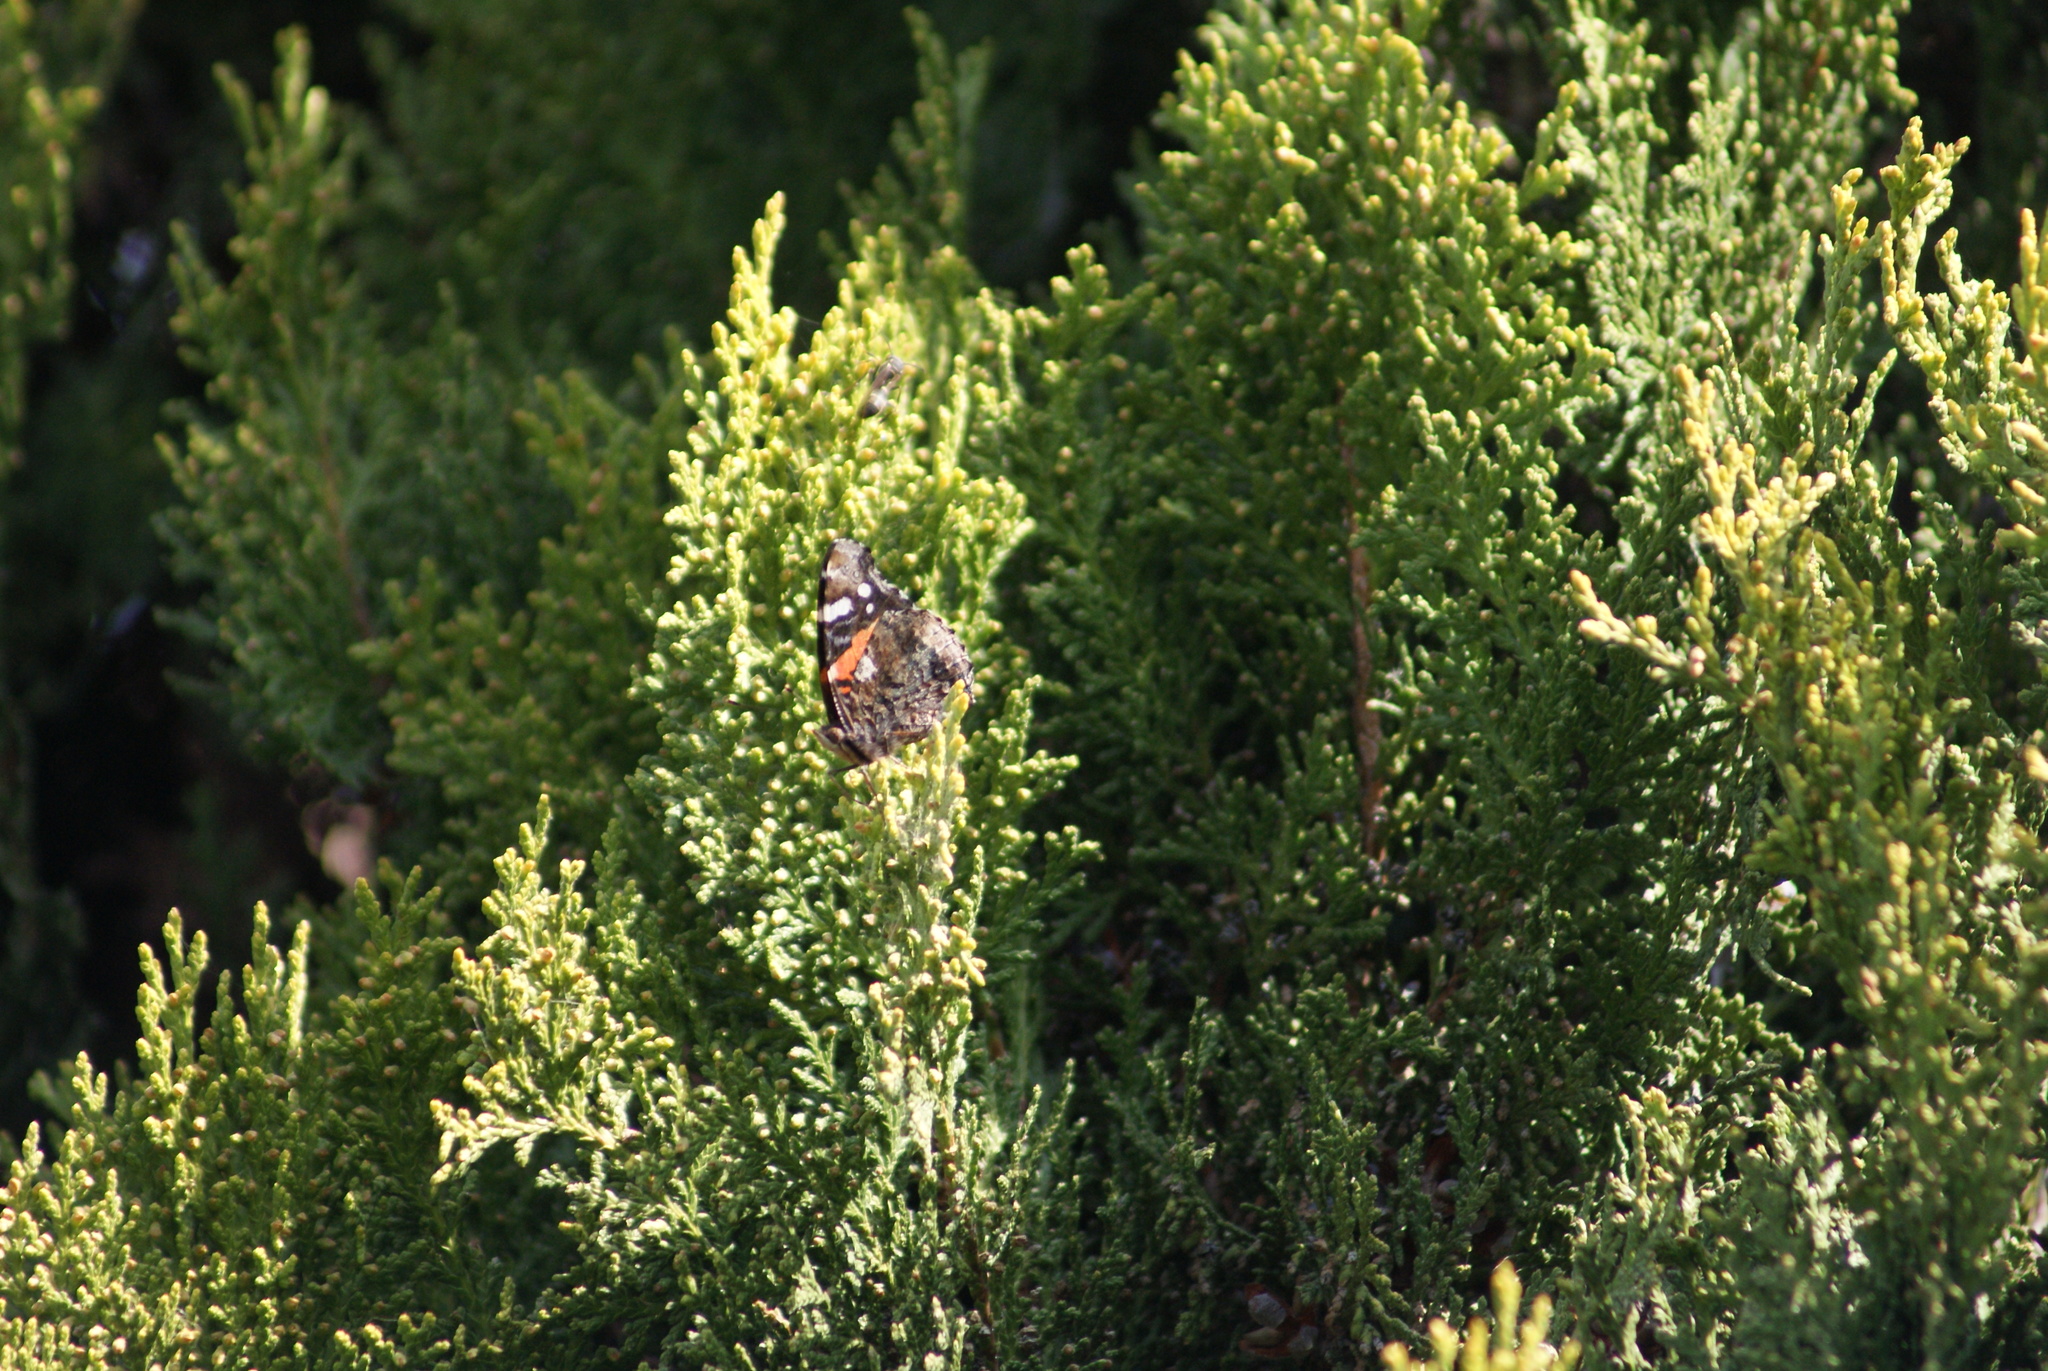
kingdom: Animalia
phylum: Arthropoda
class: Insecta
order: Lepidoptera
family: Nymphalidae
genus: Vanessa
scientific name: Vanessa atalanta
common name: Red admiral
